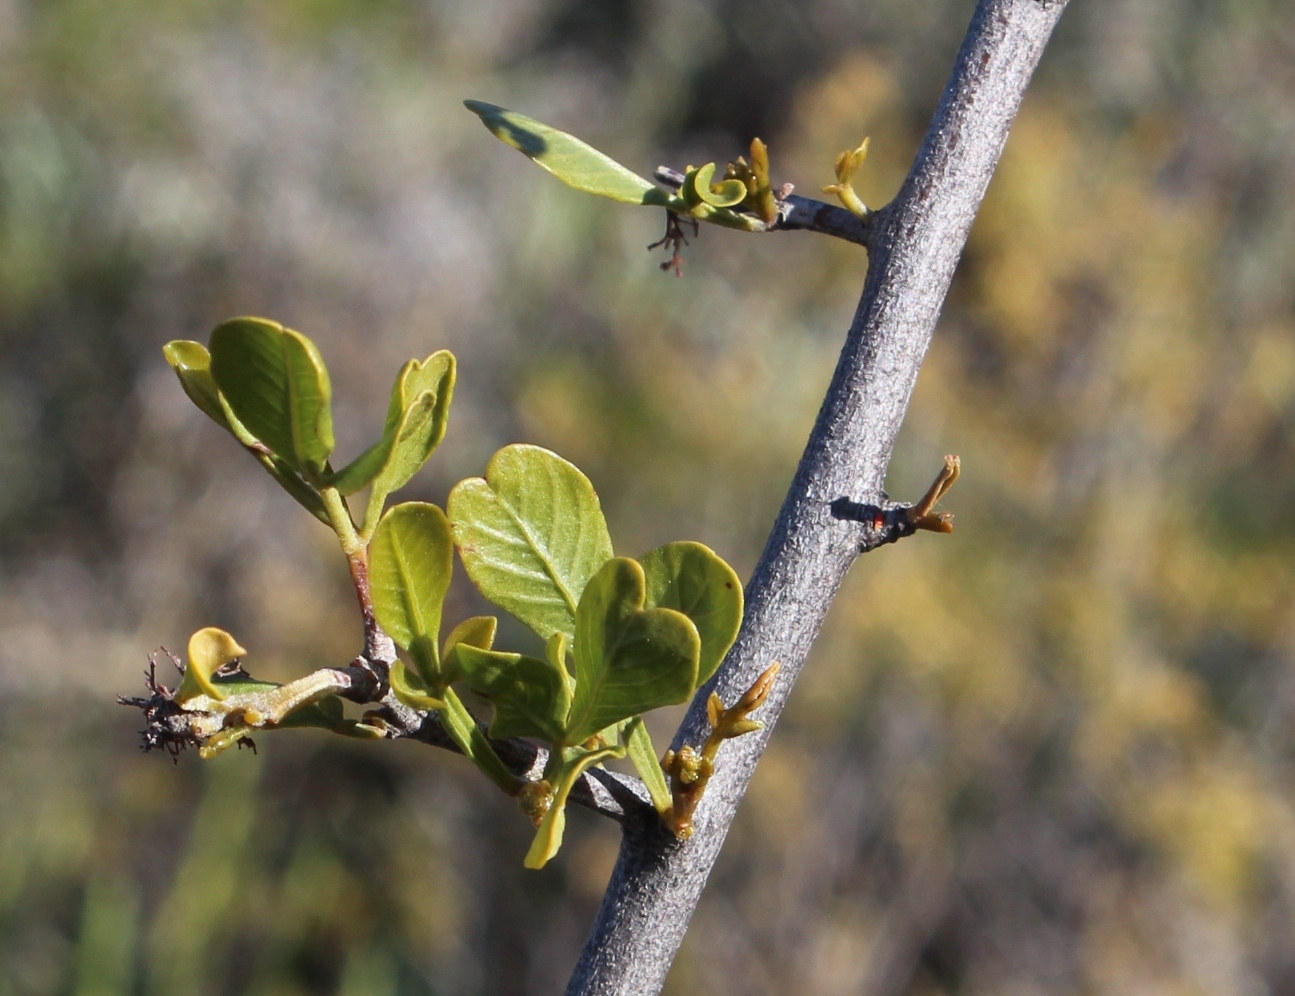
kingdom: Plantae
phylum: Tracheophyta
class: Magnoliopsida
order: Sapindales
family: Anacardiaceae
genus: Searsia
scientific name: Searsia undulata
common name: Namaqua kunibush
